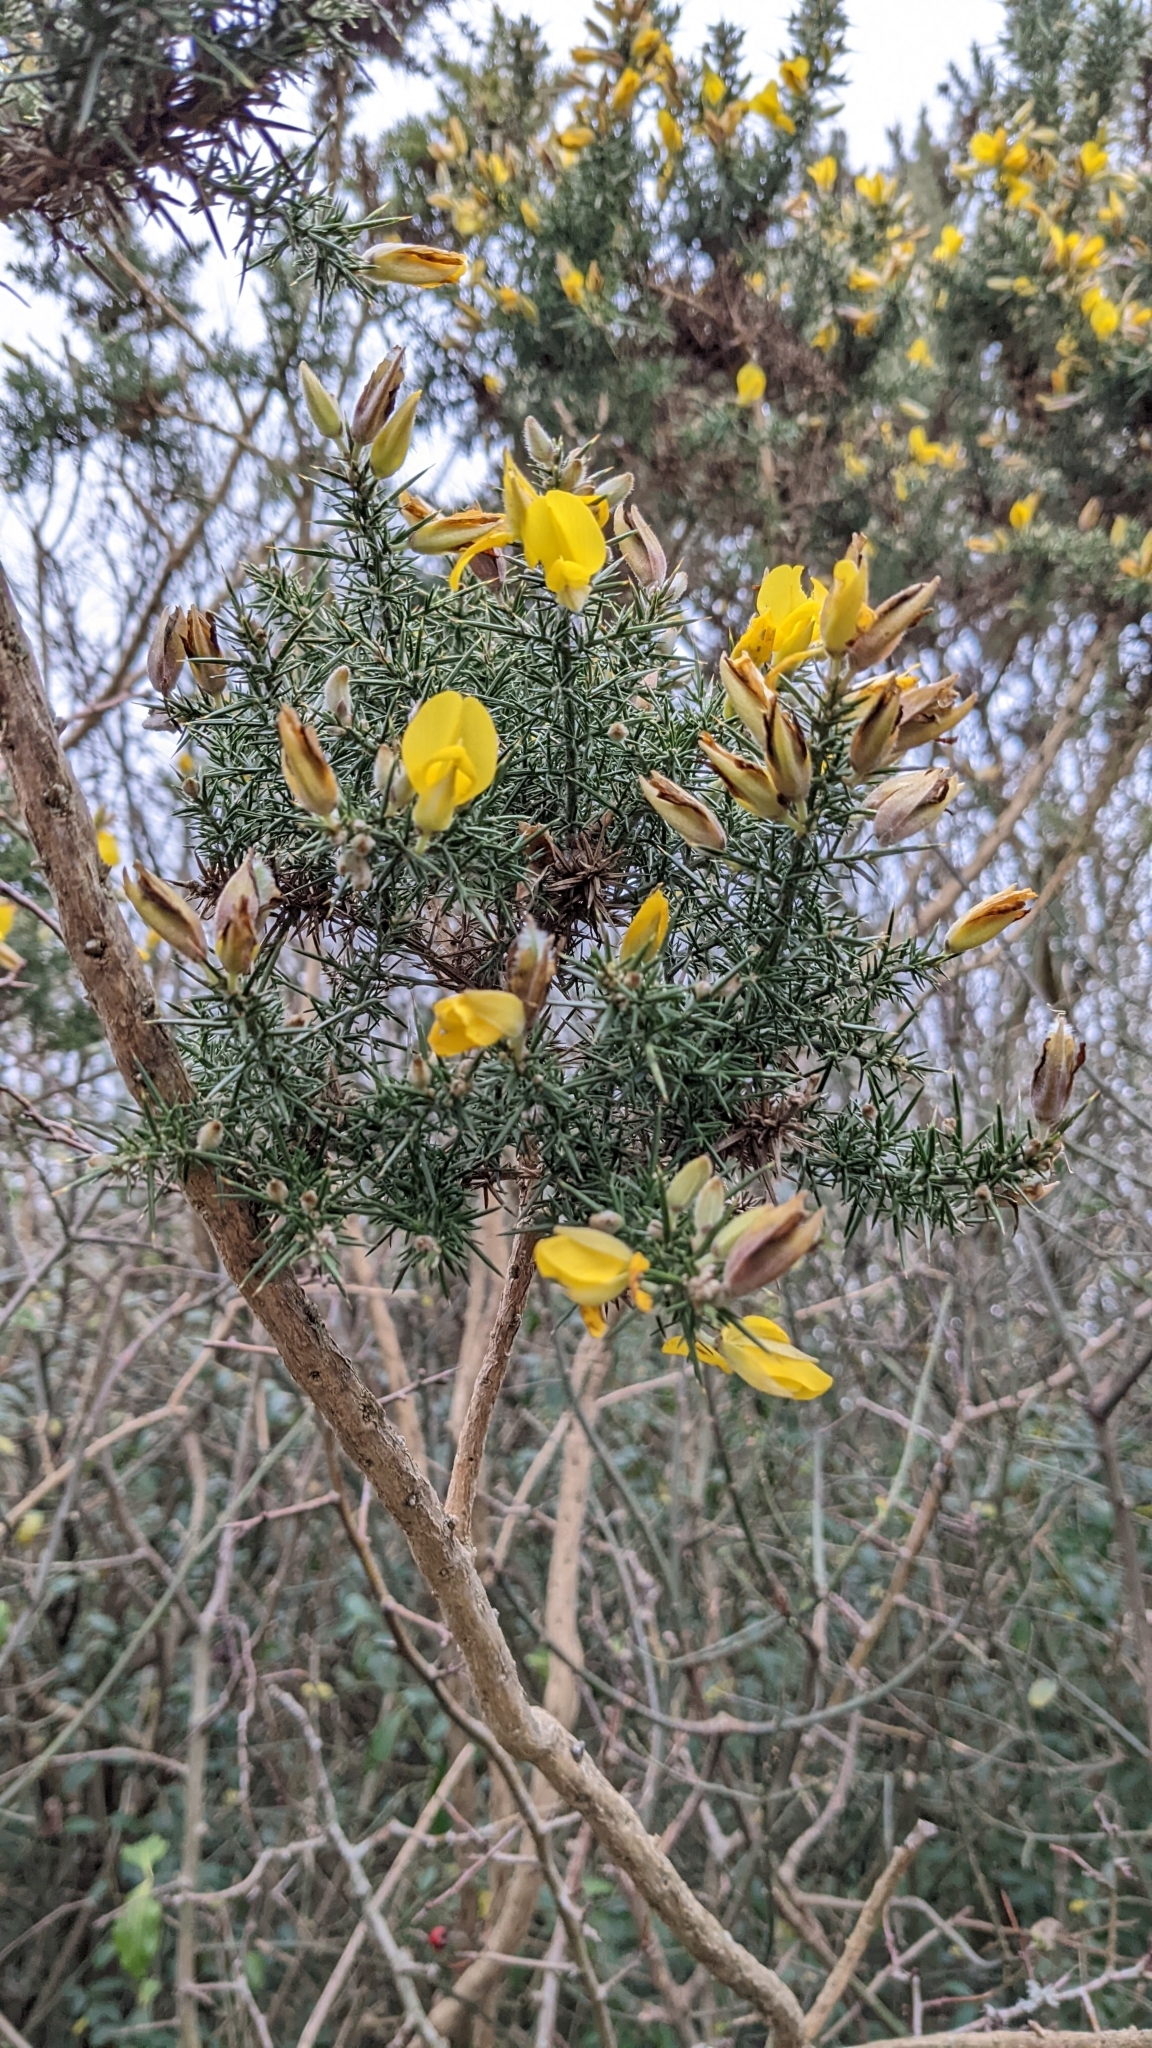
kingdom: Plantae
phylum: Tracheophyta
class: Magnoliopsida
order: Fabales
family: Fabaceae
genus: Ulex
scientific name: Ulex europaeus
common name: Common gorse
